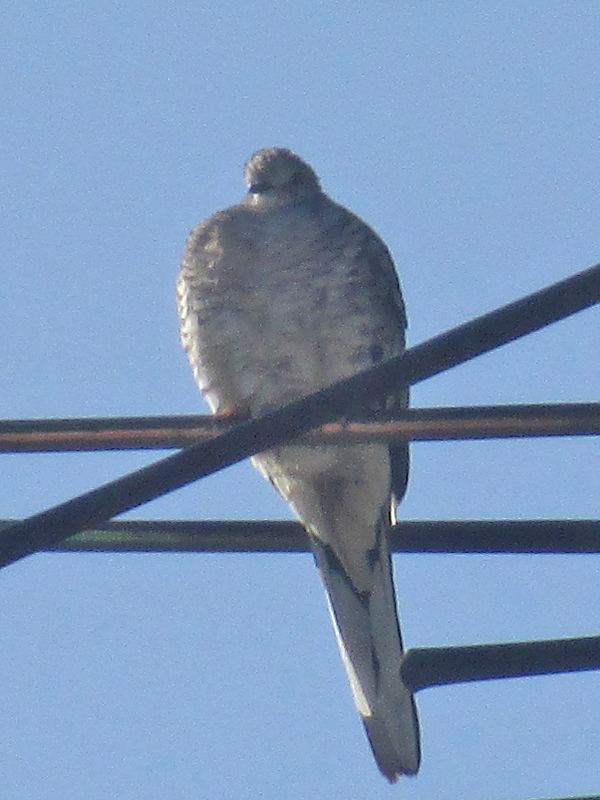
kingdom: Animalia
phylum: Chordata
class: Aves
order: Columbiformes
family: Columbidae
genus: Columbina
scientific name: Columbina inca
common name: Inca dove
